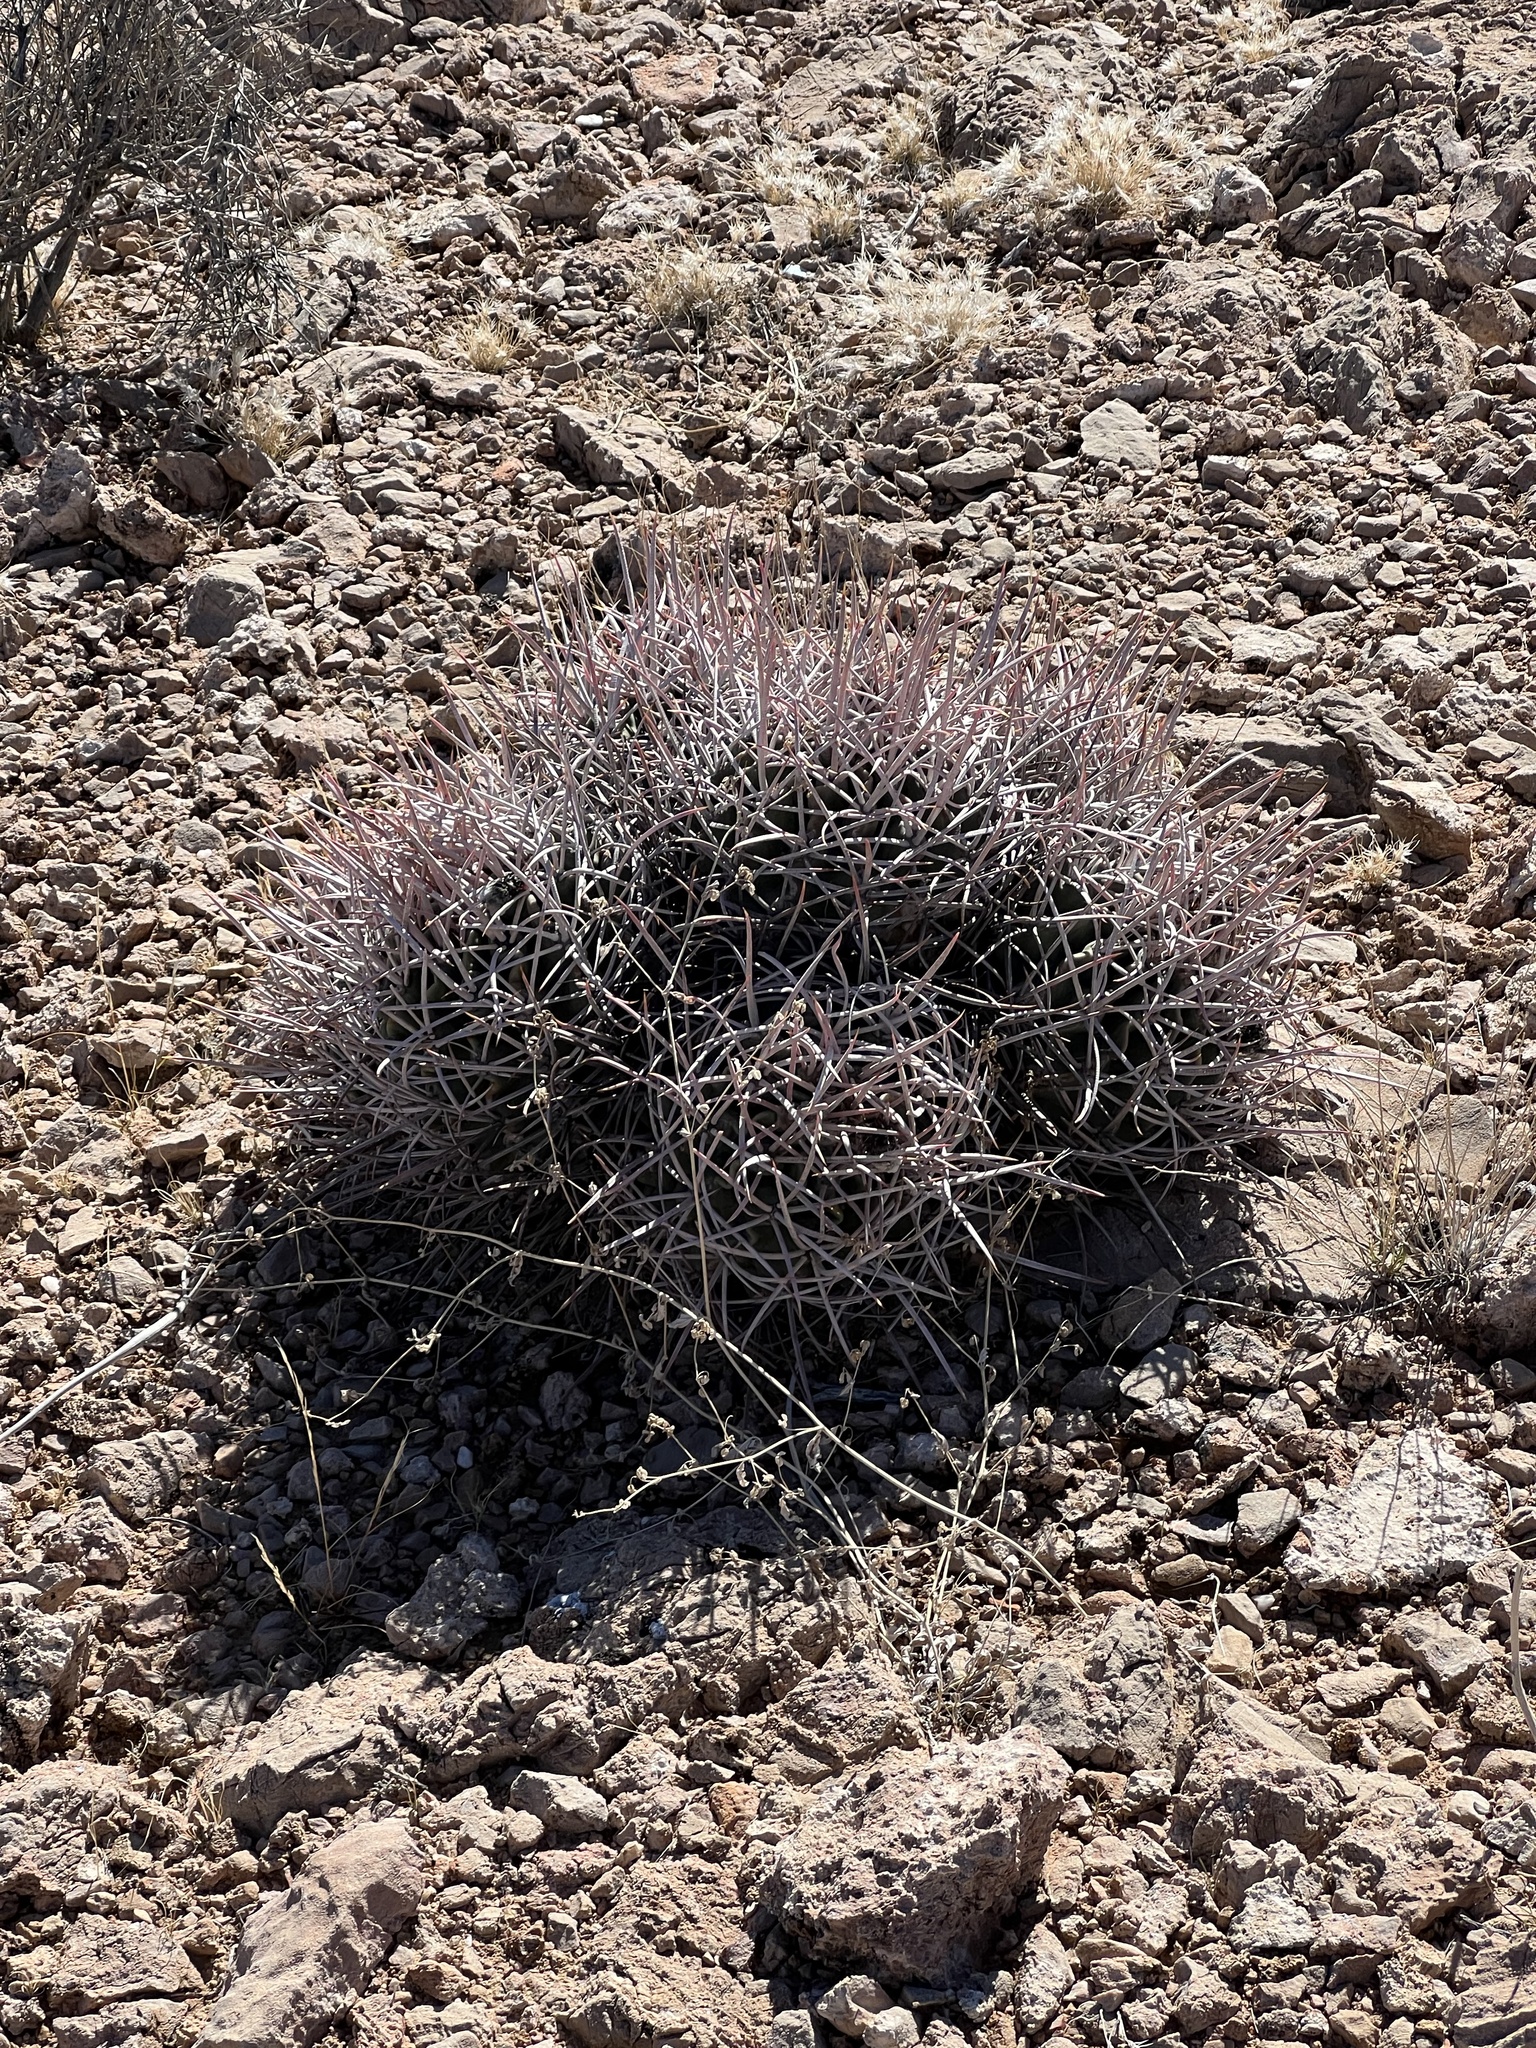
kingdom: Plantae
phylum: Tracheophyta
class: Magnoliopsida
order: Caryophyllales
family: Cactaceae
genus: Echinocactus
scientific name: Echinocactus polycephalus
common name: Cottontop cactus
